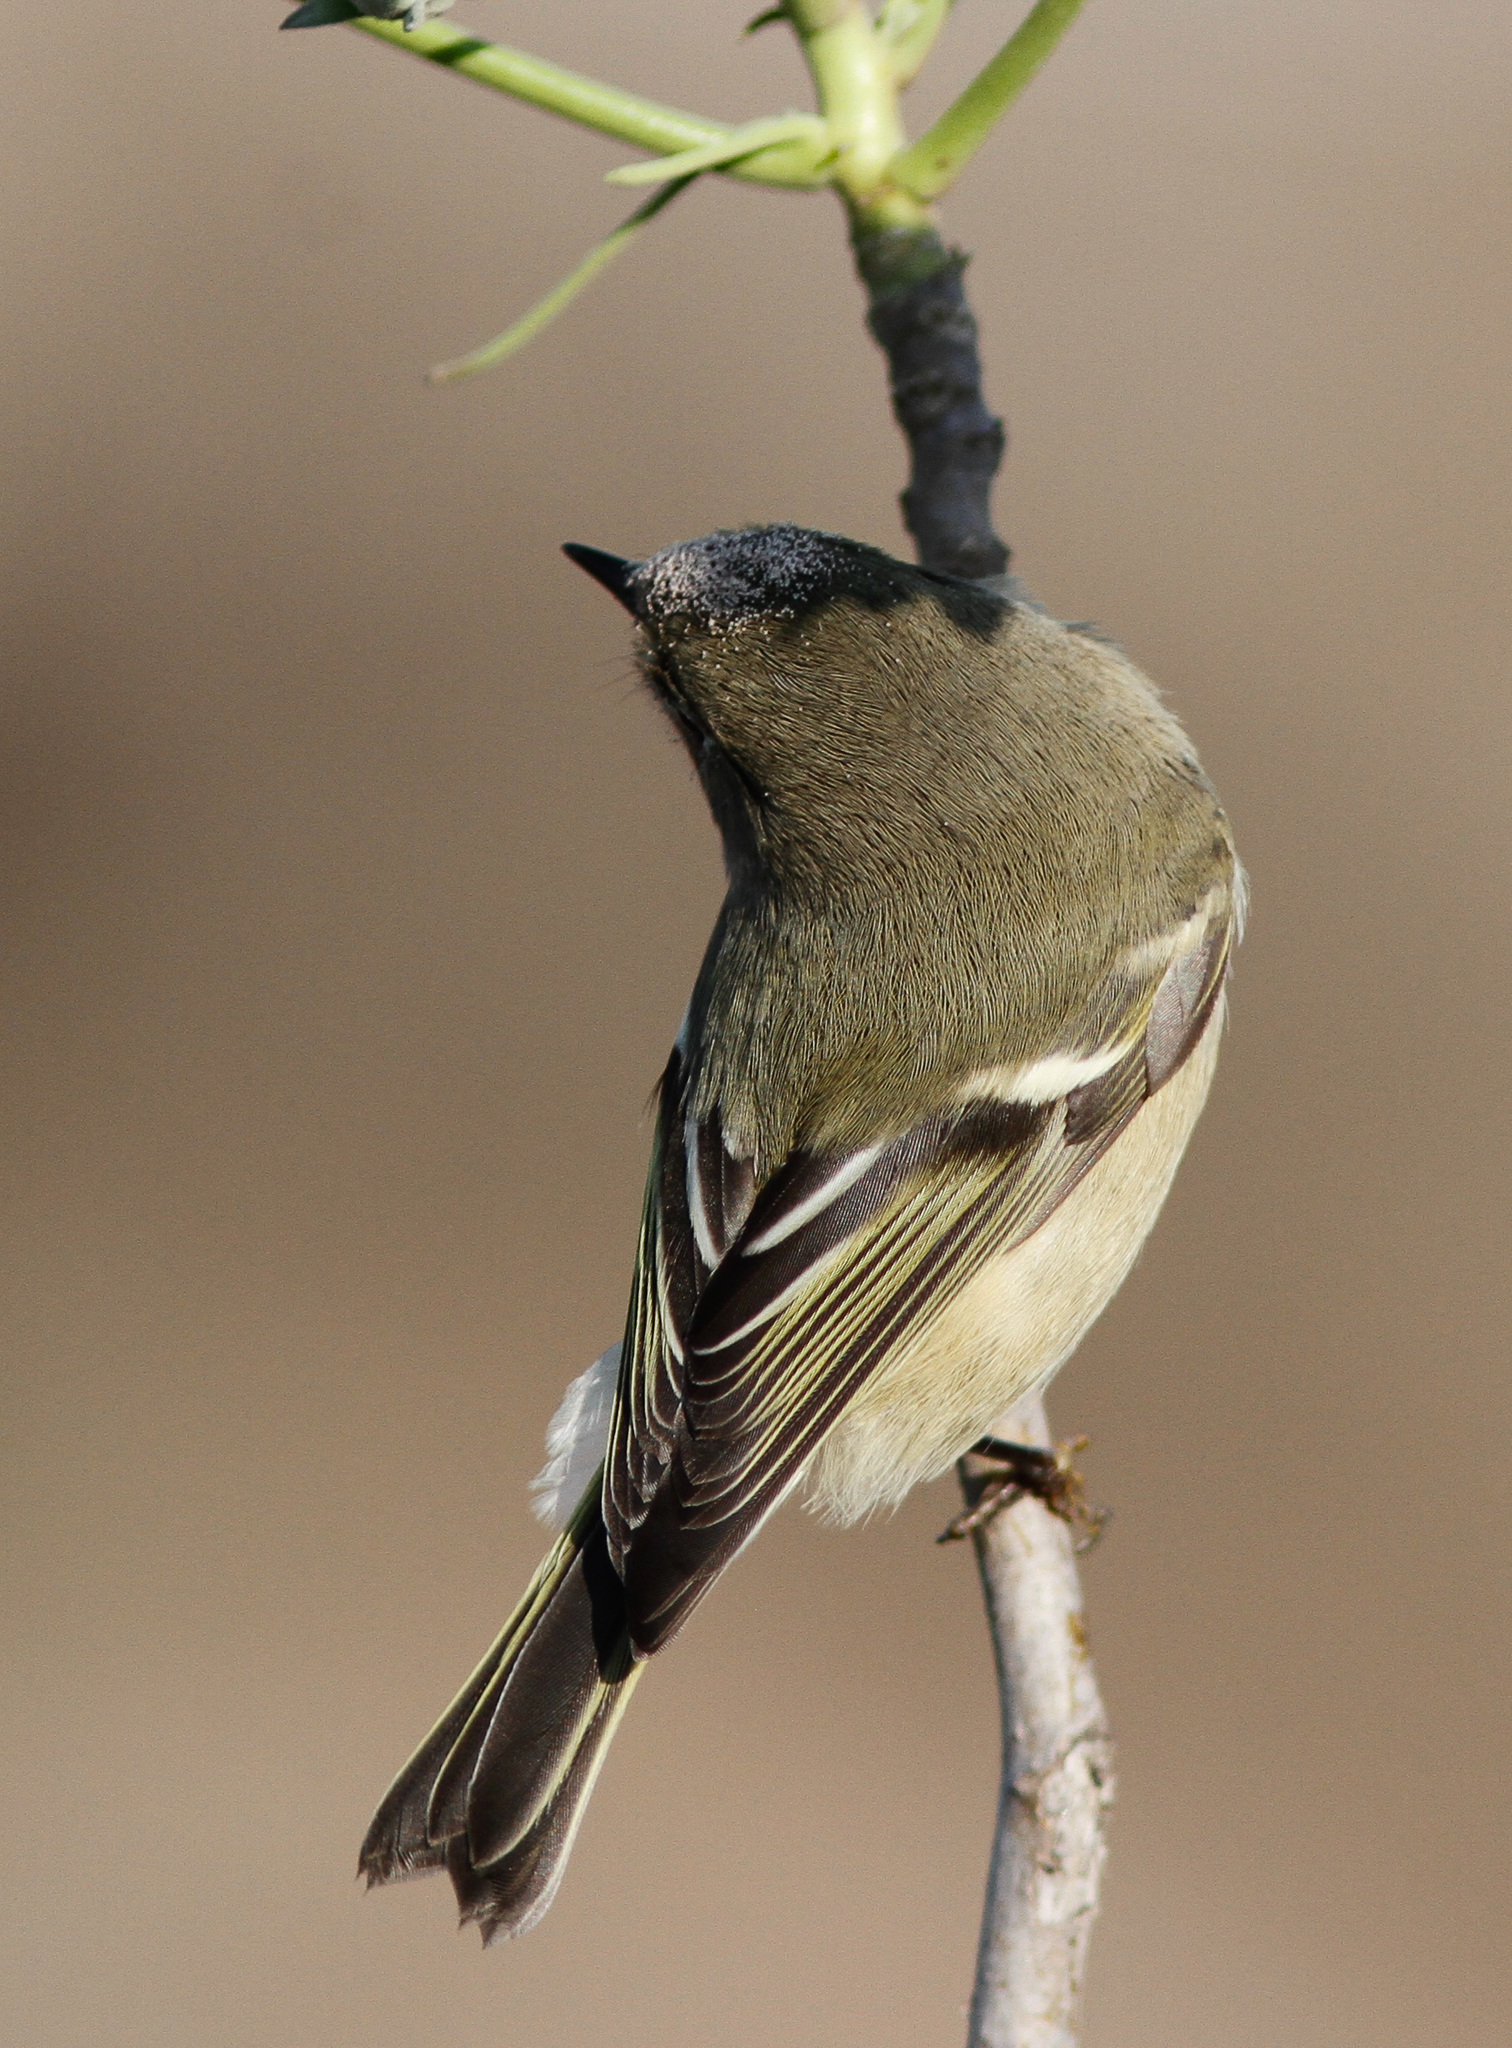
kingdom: Animalia
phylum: Chordata
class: Aves
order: Passeriformes
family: Regulidae
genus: Regulus
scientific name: Regulus calendula
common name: Ruby-crowned kinglet
